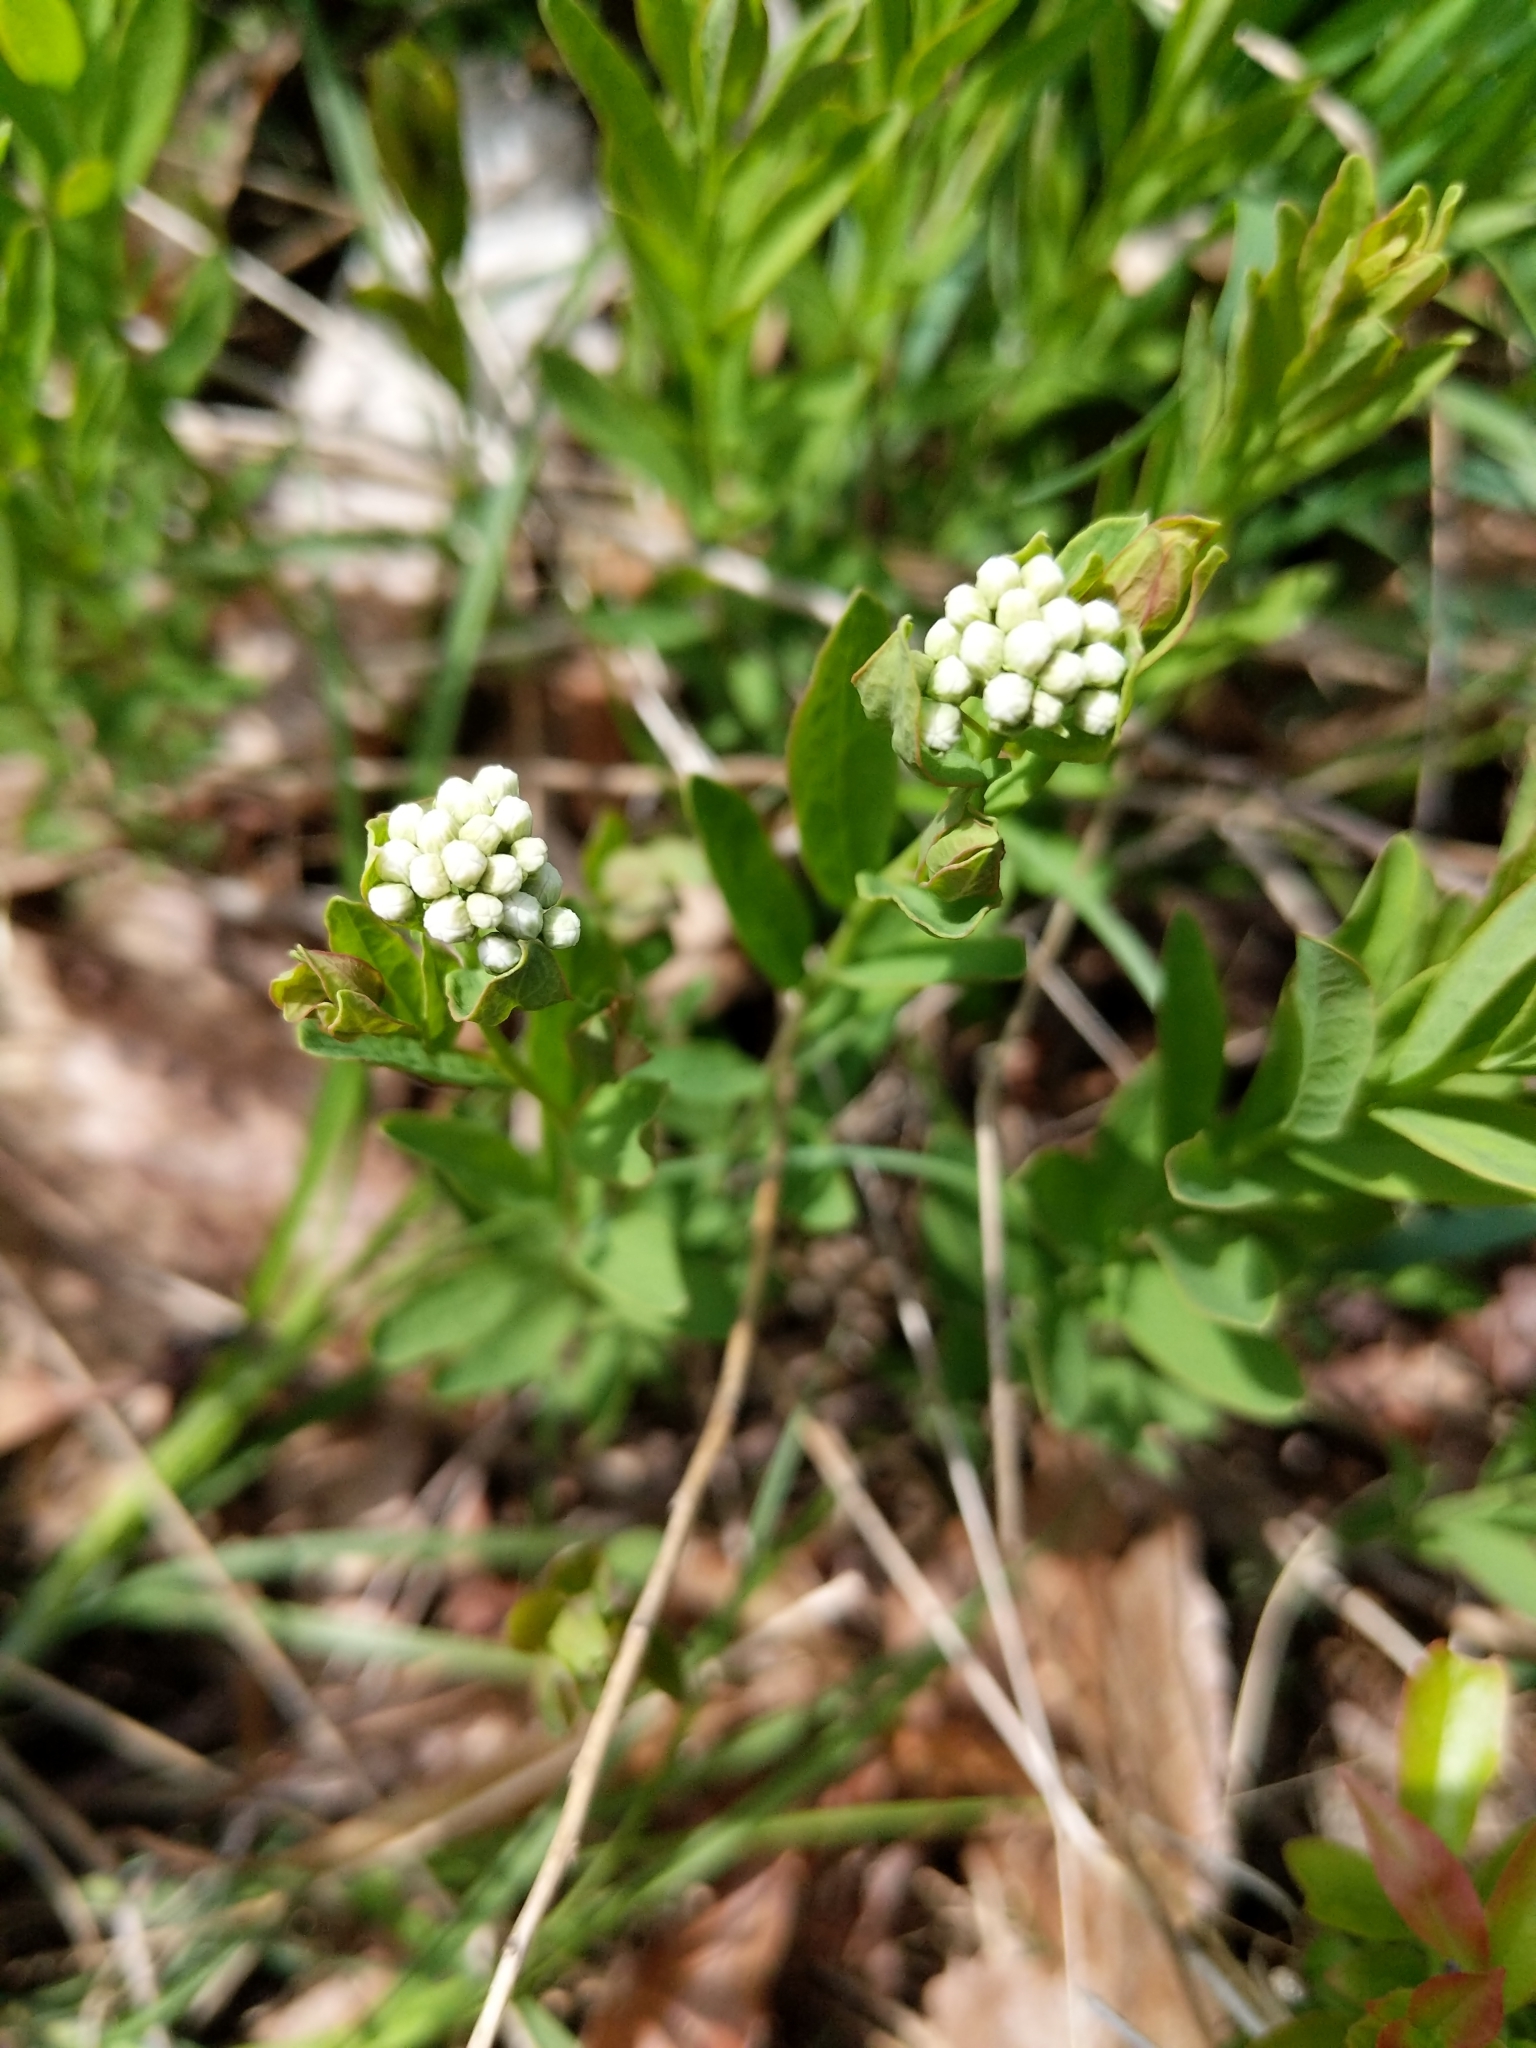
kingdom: Plantae
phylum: Tracheophyta
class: Magnoliopsida
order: Santalales
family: Comandraceae
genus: Comandra
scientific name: Comandra umbellata
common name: Bastard toadflax
